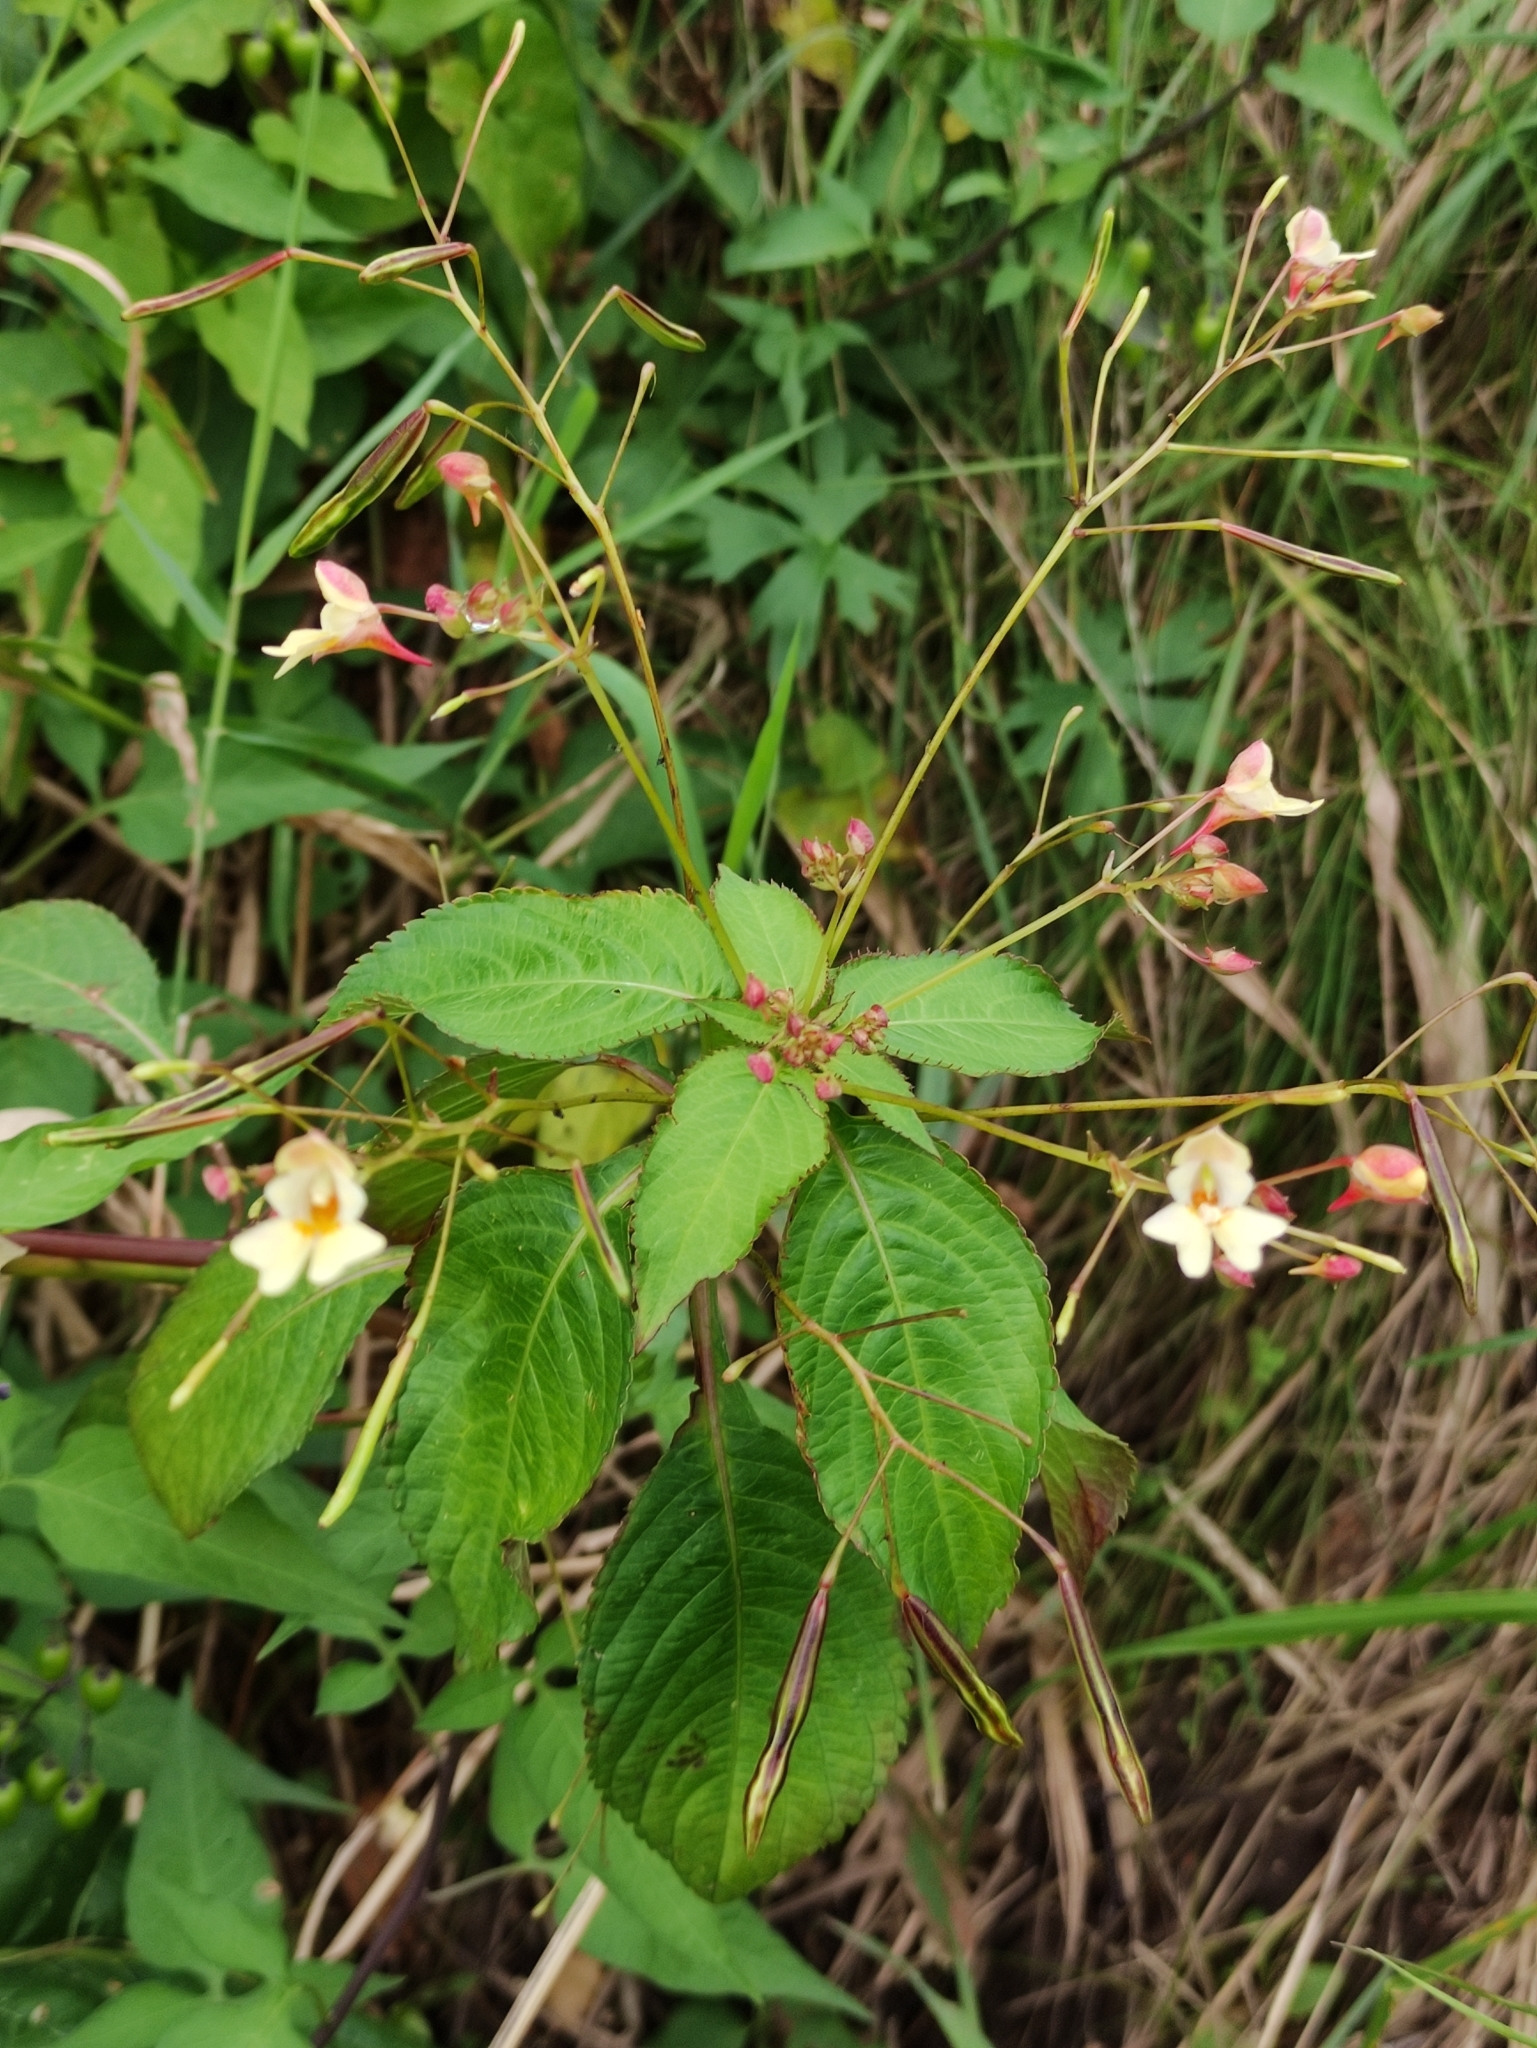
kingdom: Plantae
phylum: Tracheophyta
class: Magnoliopsida
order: Ericales
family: Balsaminaceae
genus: Impatiens
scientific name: Impatiens parviflora
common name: Small balsam
